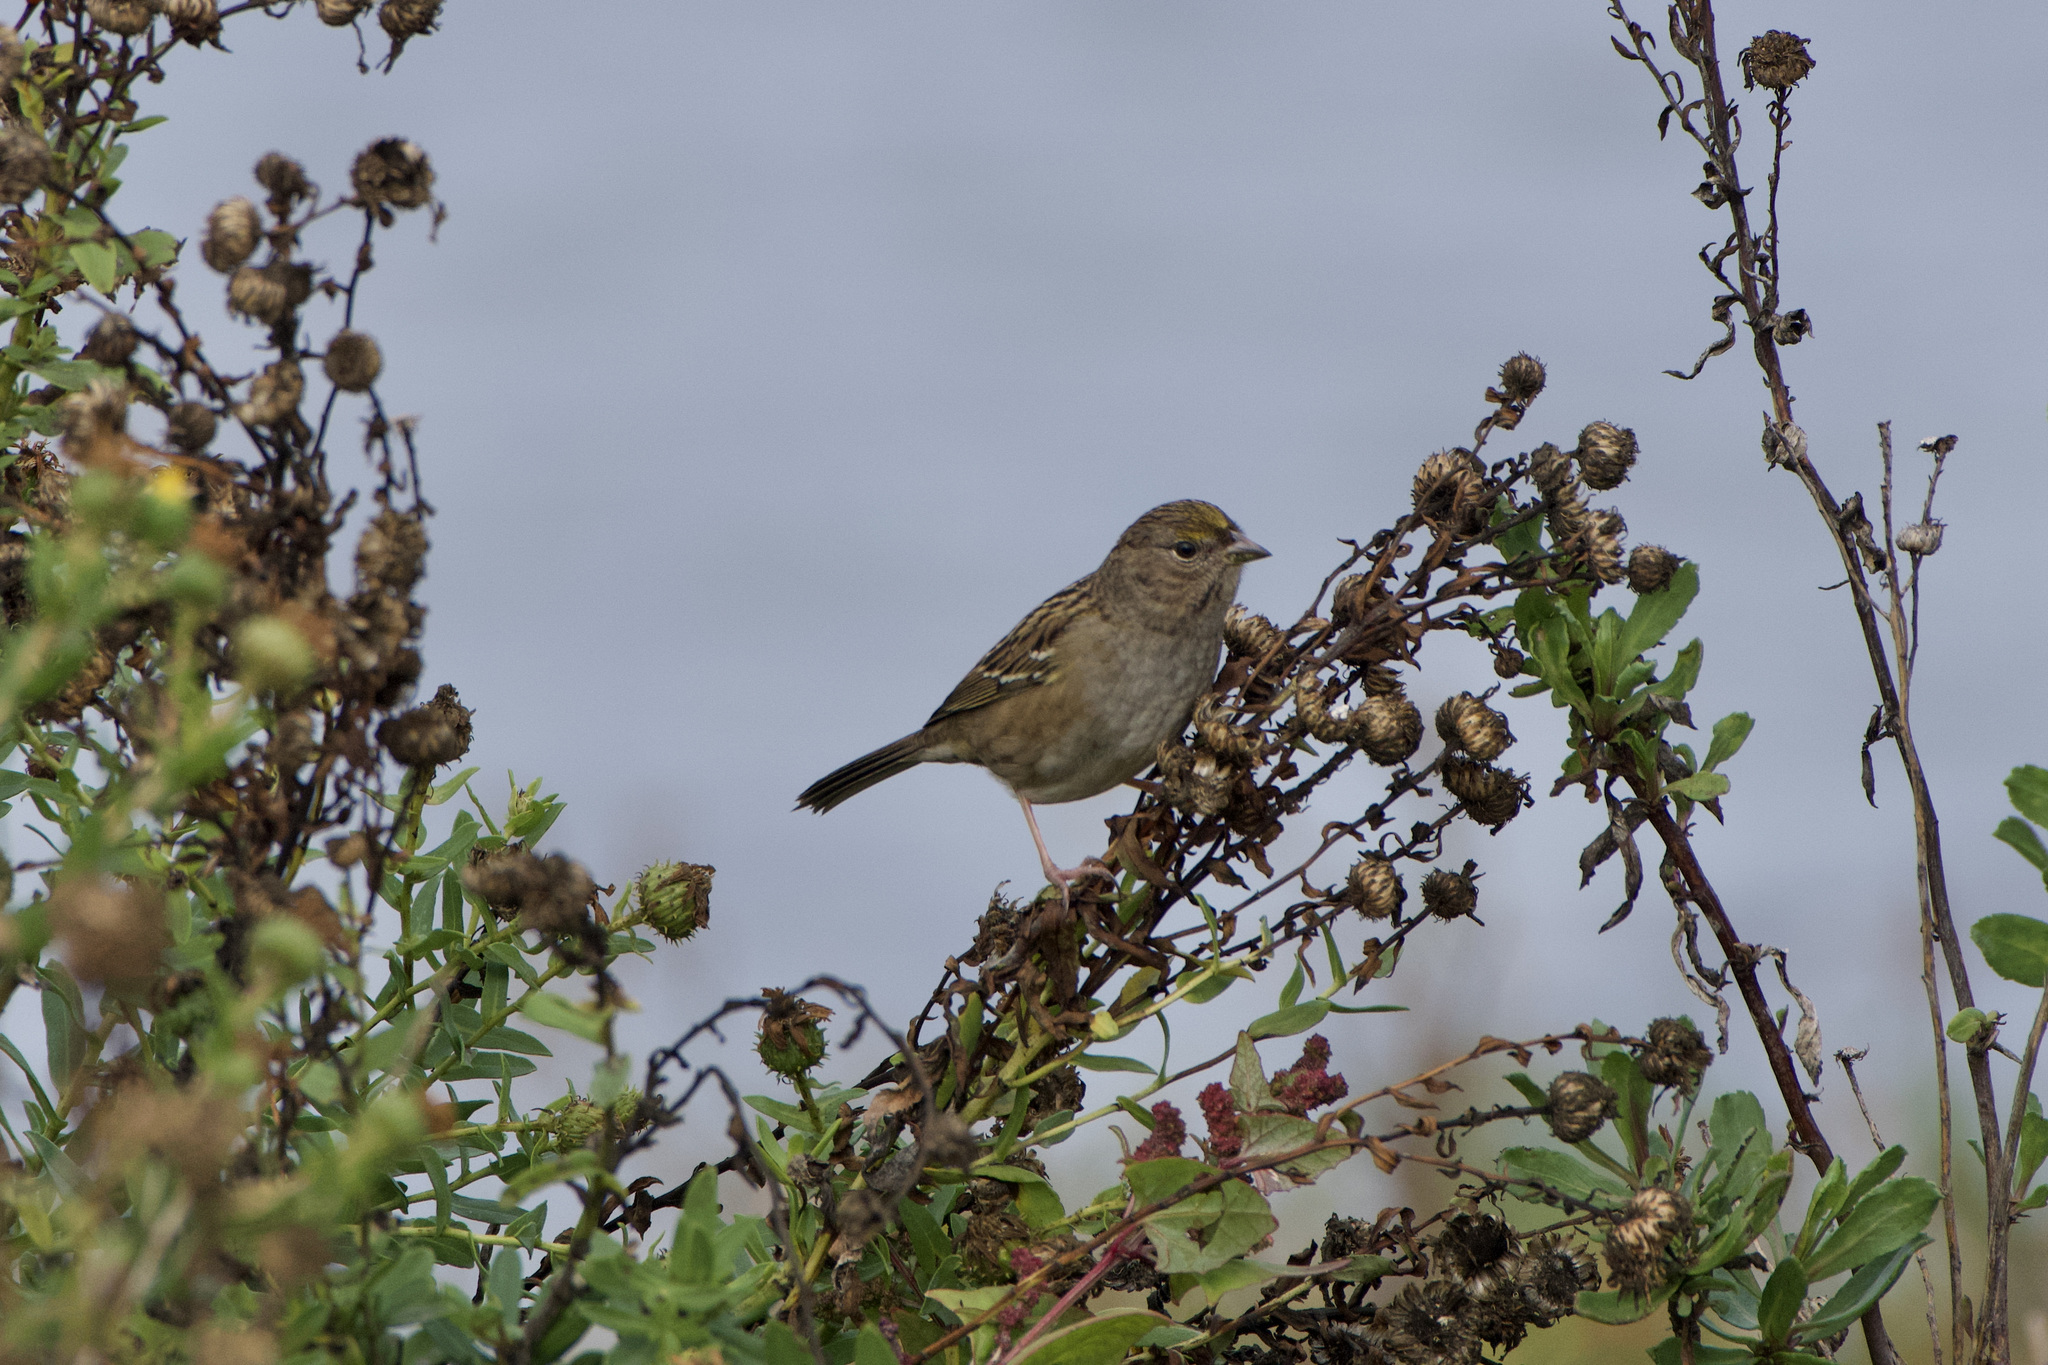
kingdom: Animalia
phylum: Chordata
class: Aves
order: Passeriformes
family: Passerellidae
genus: Zonotrichia
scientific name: Zonotrichia atricapilla
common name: Golden-crowned sparrow
